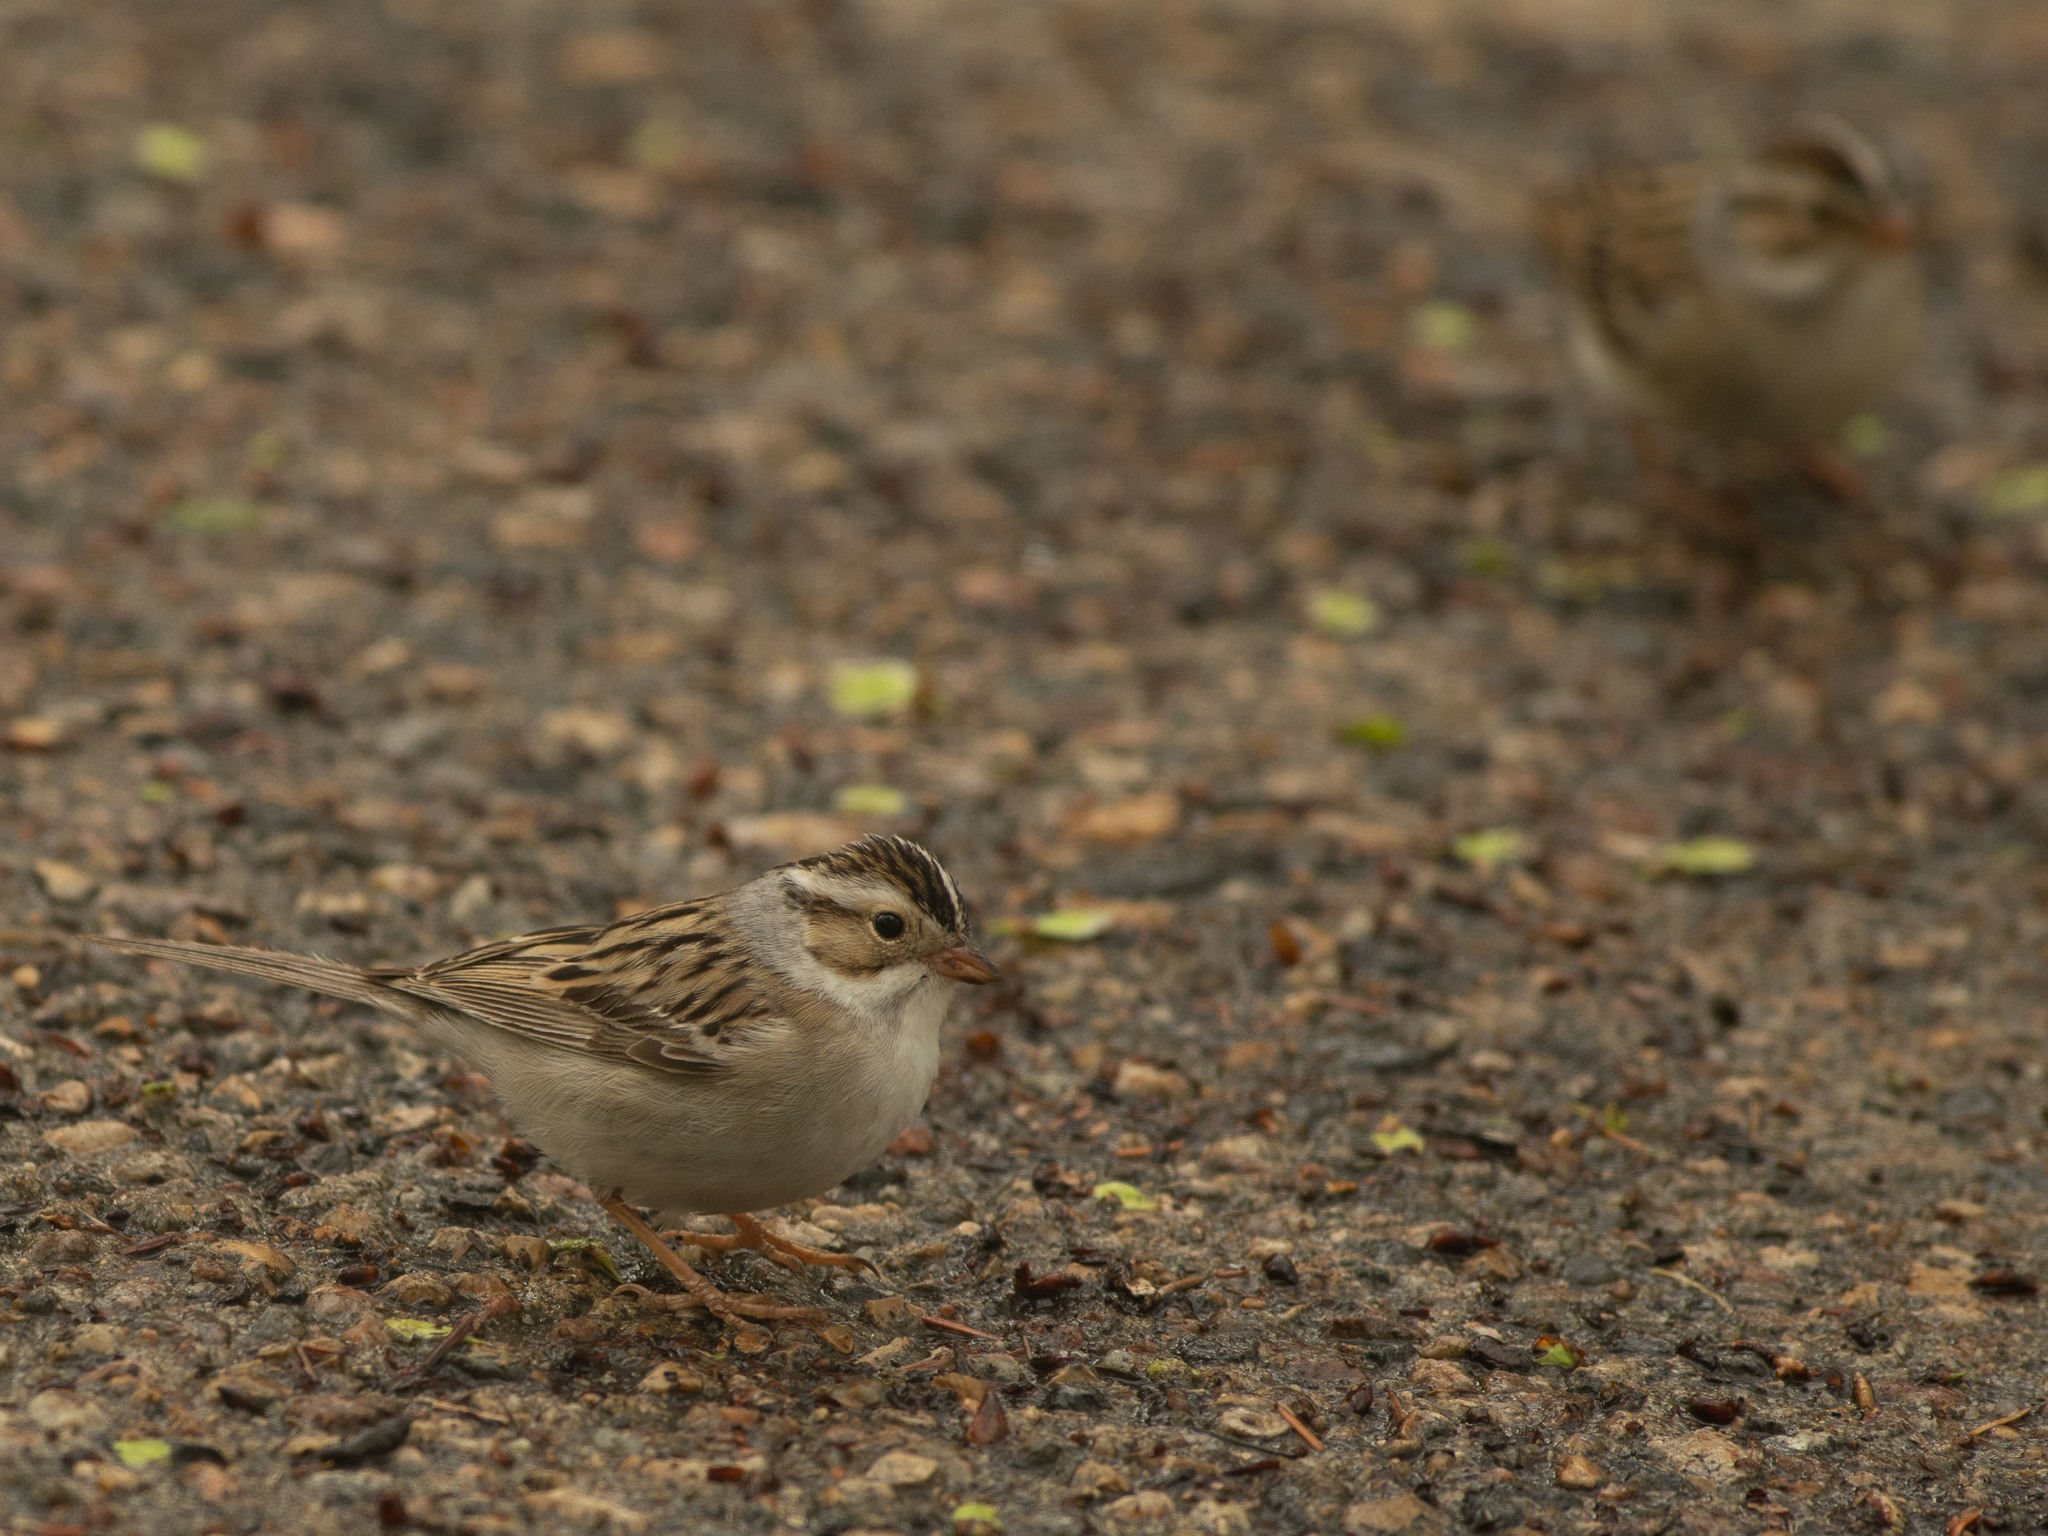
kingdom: Animalia
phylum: Chordata
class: Aves
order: Passeriformes
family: Passerellidae
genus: Spizella
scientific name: Spizella pallida
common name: Clay-colored sparrow
